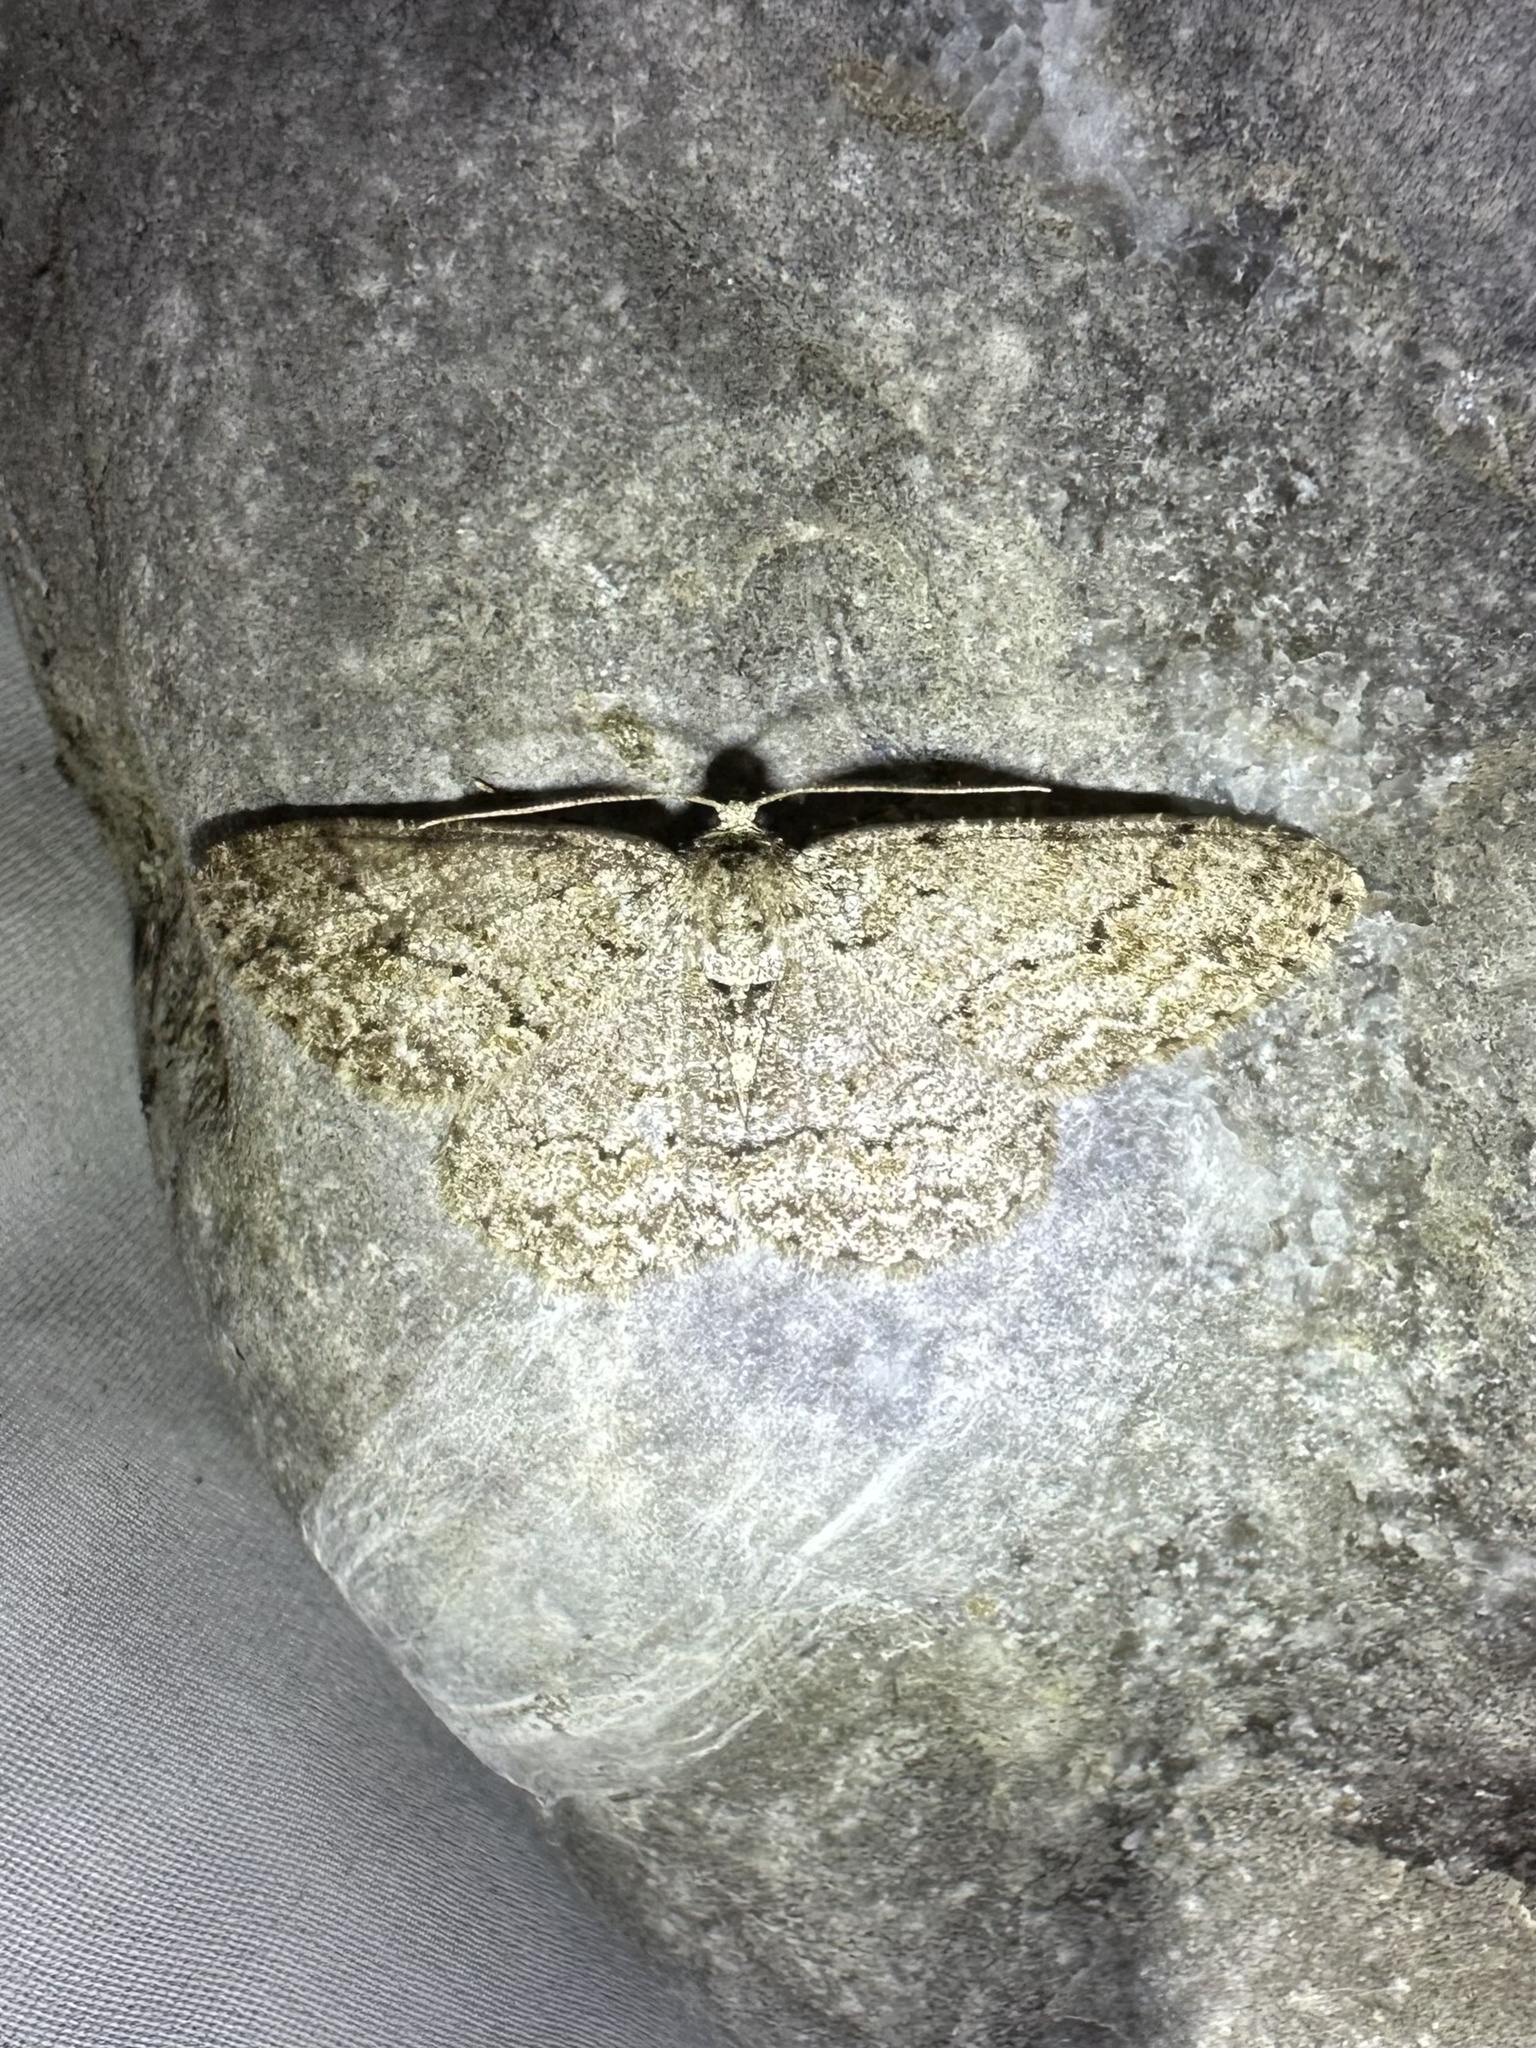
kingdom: Animalia
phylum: Arthropoda
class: Insecta
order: Lepidoptera
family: Geometridae
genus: Ectropis
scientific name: Ectropis crepuscularia
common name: Engrailed
